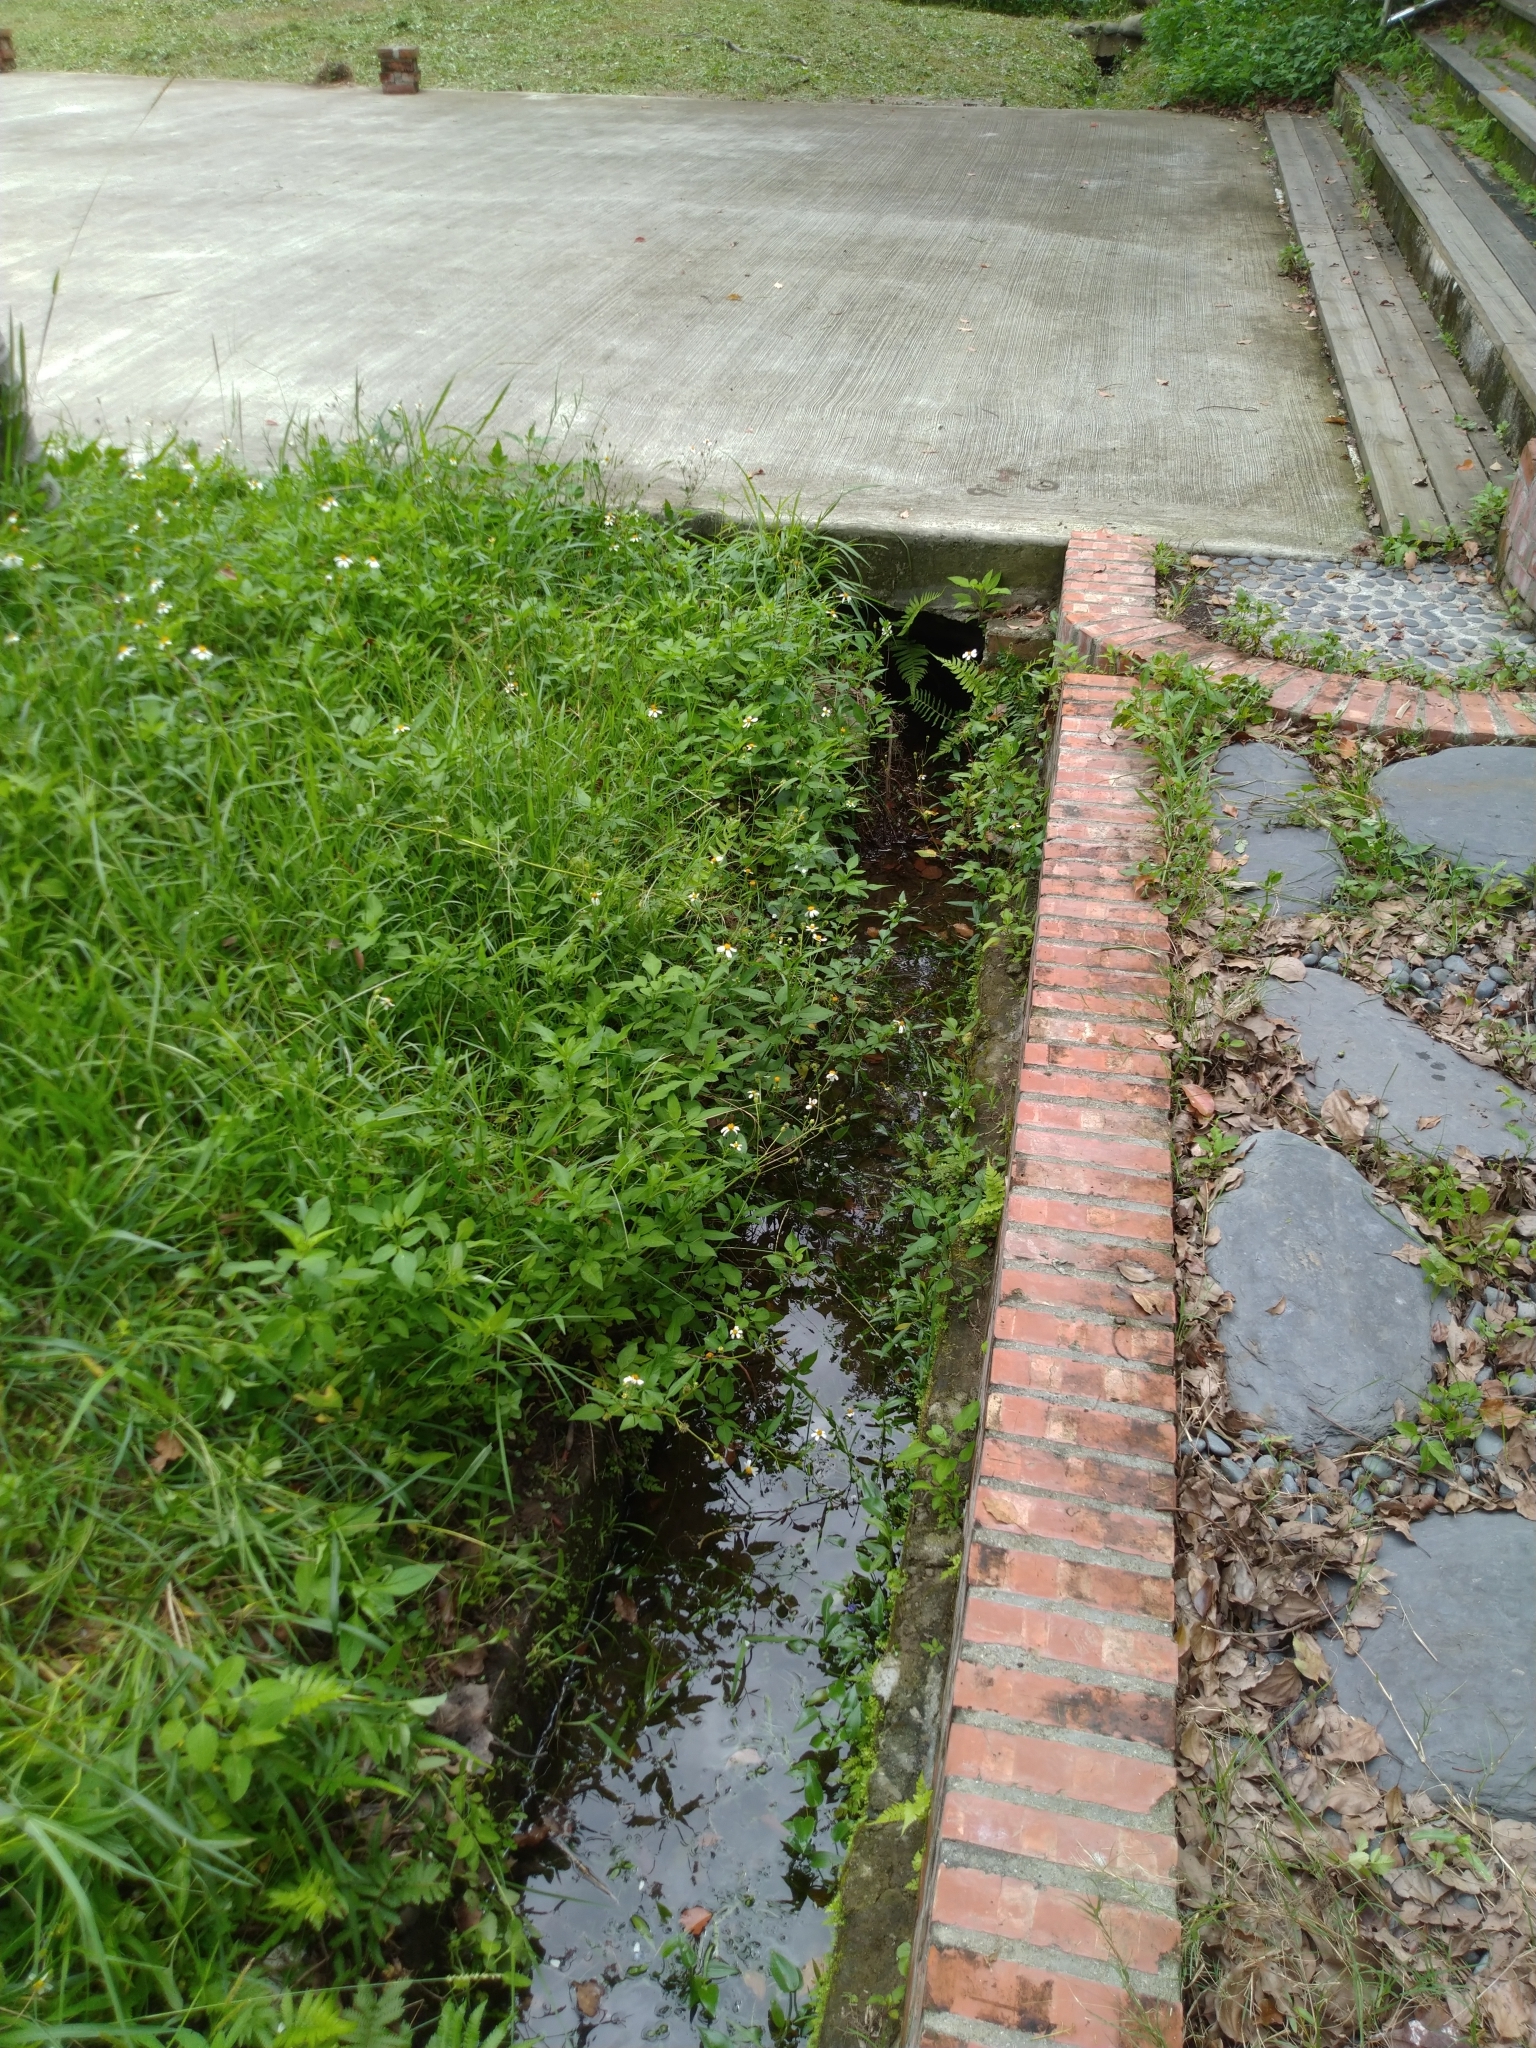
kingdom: Plantae
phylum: Tracheophyta
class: Liliopsida
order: Commelinales
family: Pontederiaceae
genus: Pontederia
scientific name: Pontederia vaginalis
